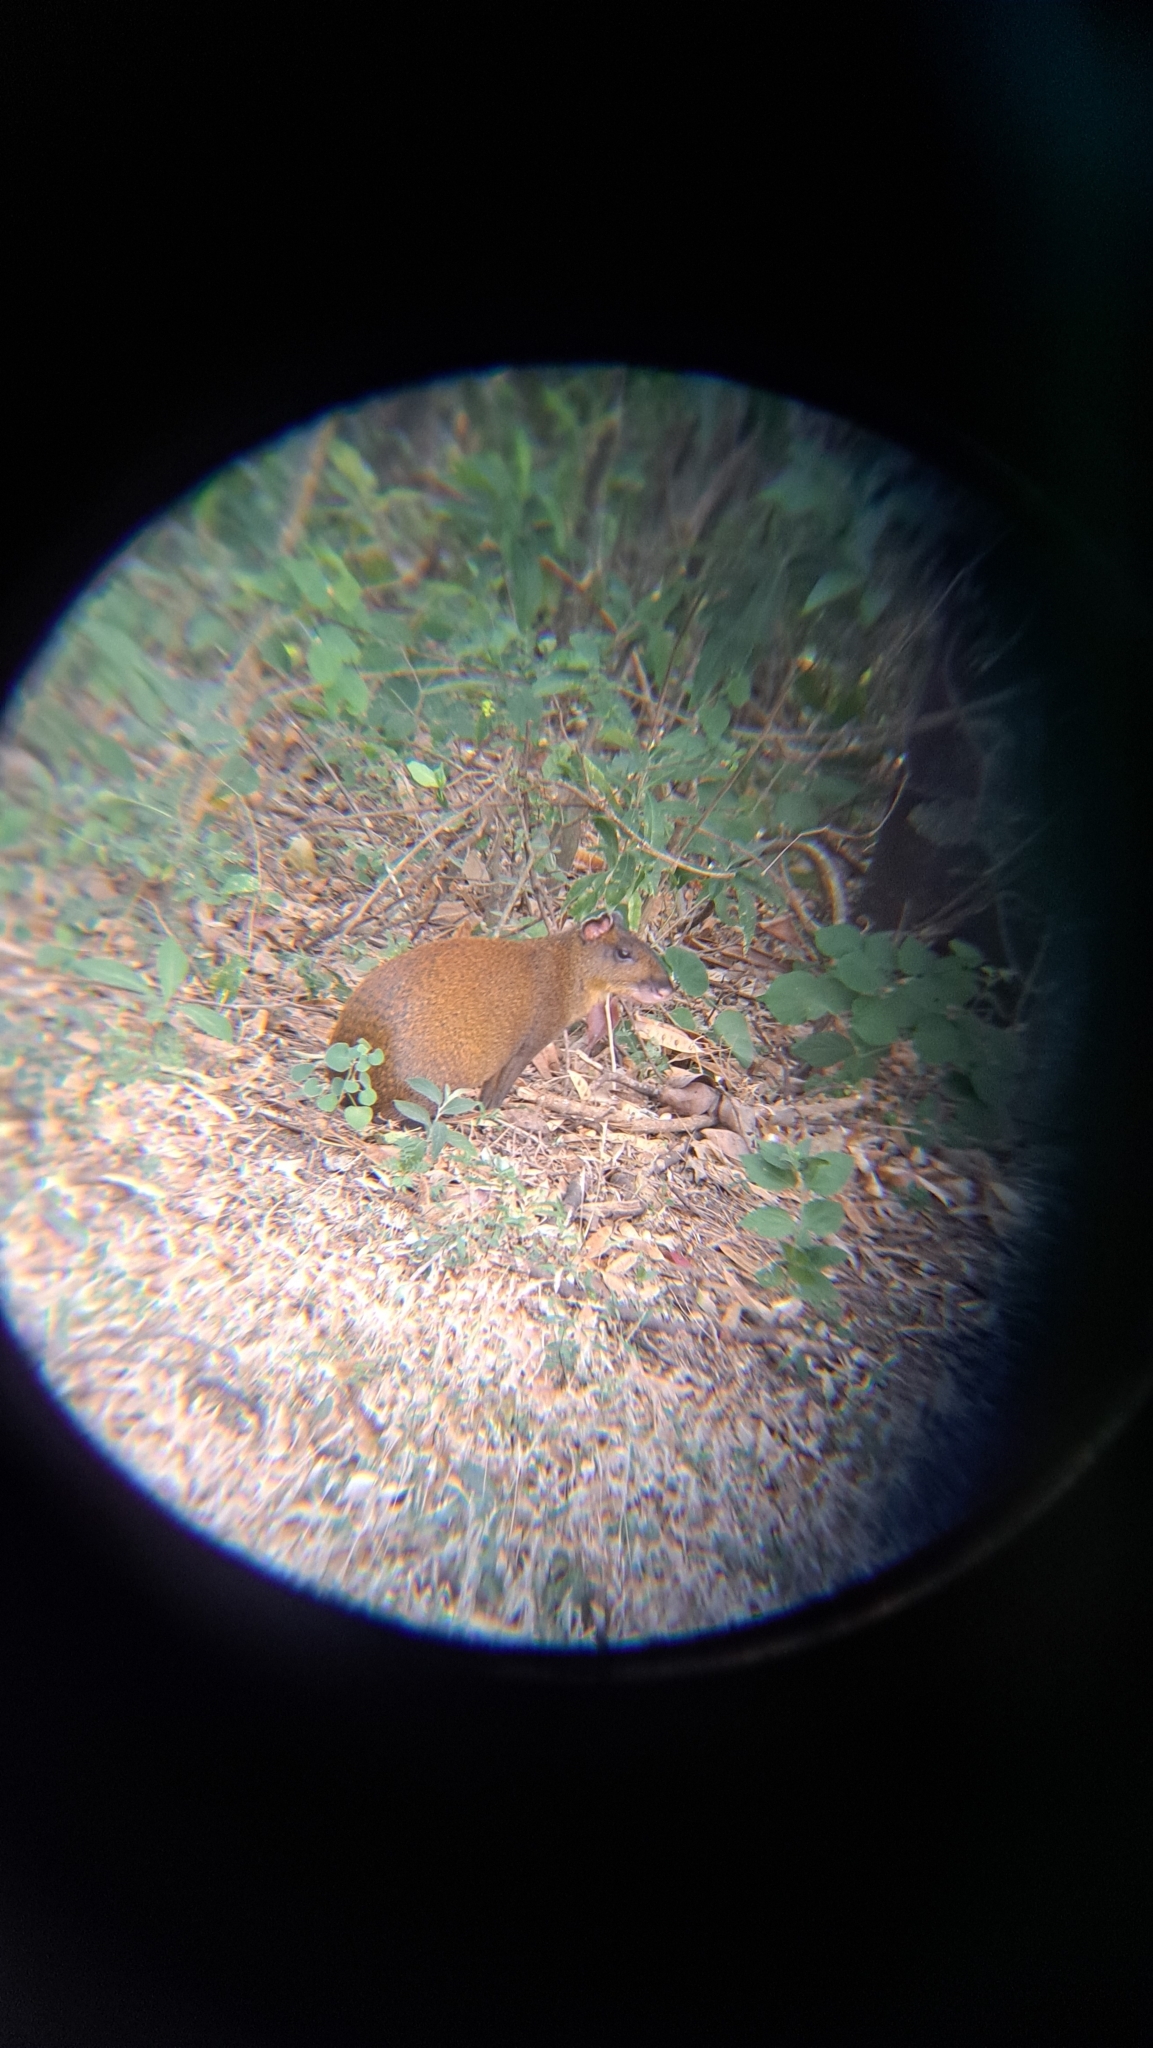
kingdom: Animalia
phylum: Chordata
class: Mammalia
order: Rodentia
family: Dasyproctidae
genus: Dasyprocta
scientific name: Dasyprocta punctata
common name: Central american agouti
